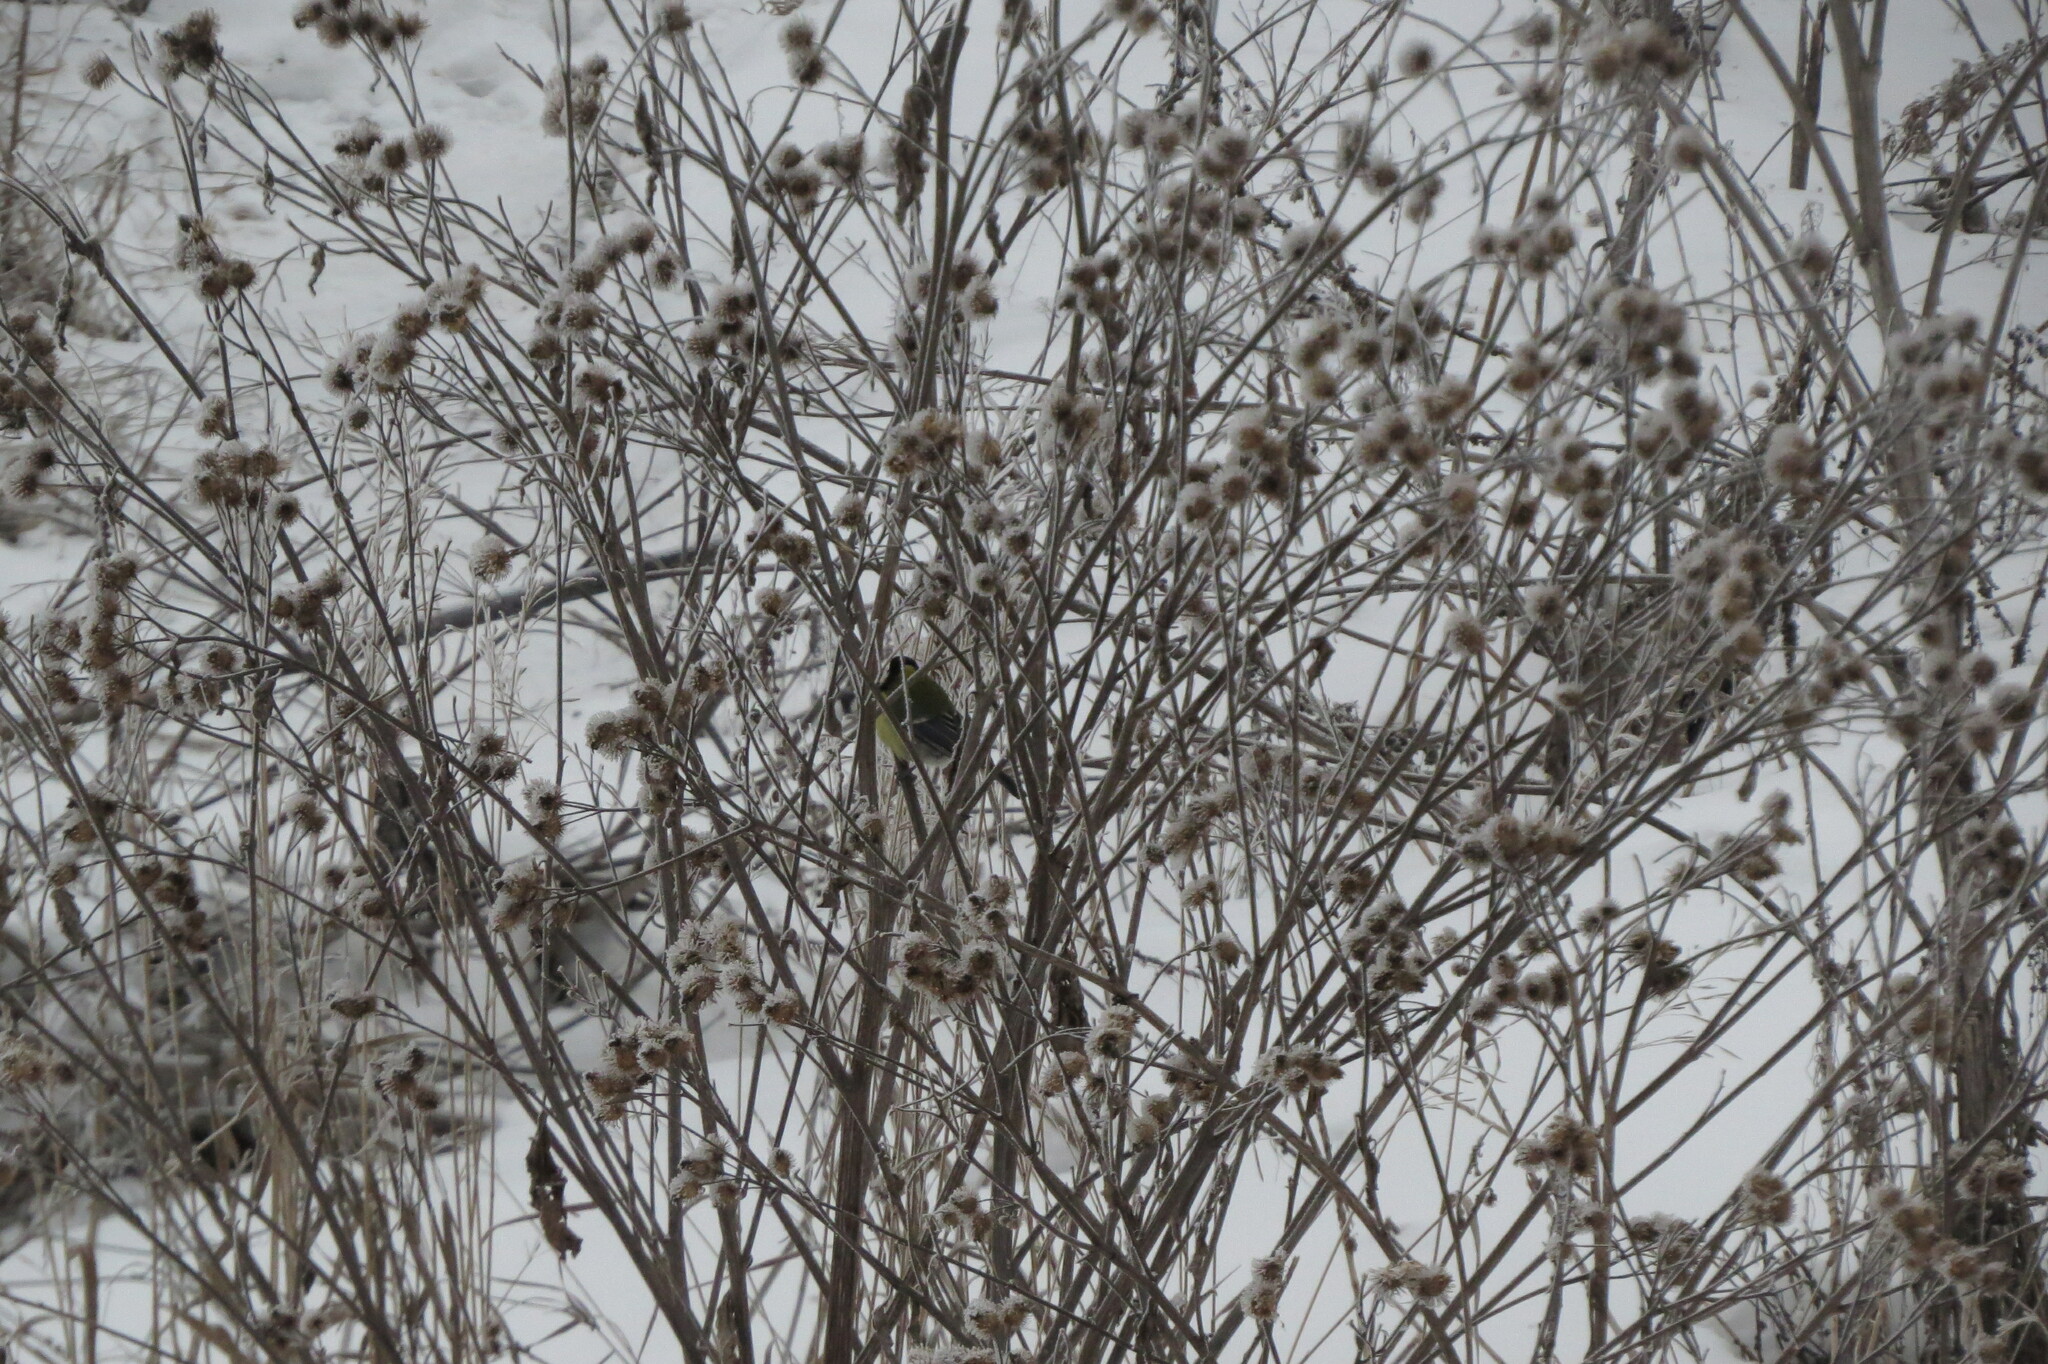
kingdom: Animalia
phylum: Chordata
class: Aves
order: Passeriformes
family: Paridae
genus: Parus
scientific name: Parus major
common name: Great tit
